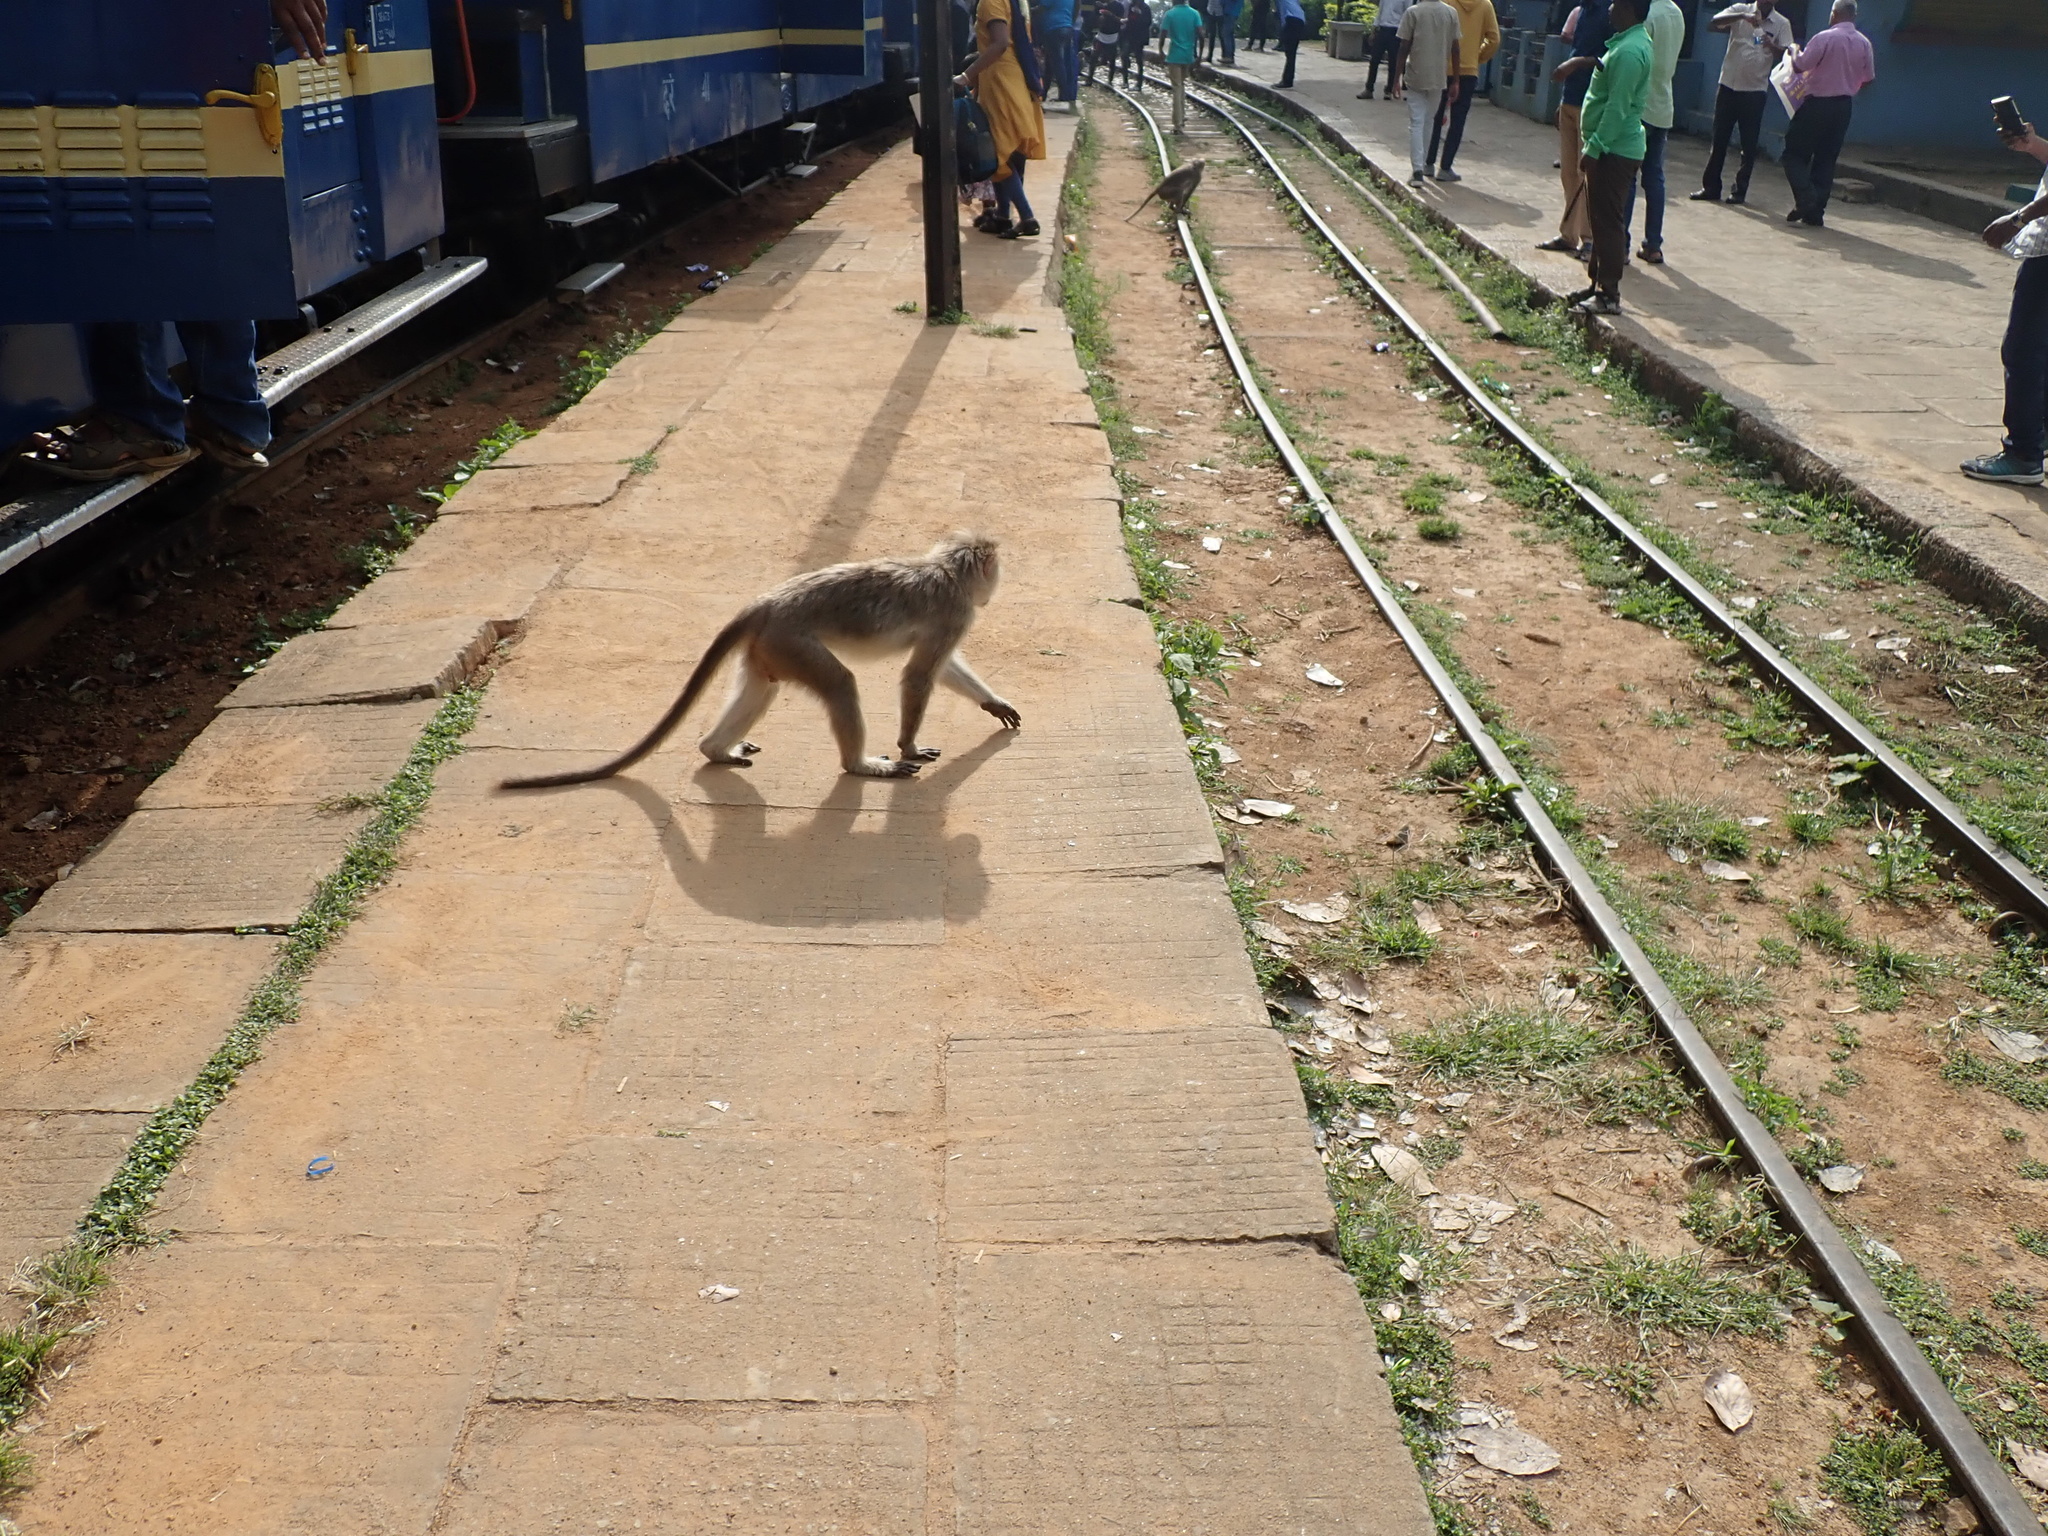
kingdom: Animalia
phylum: Chordata
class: Mammalia
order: Primates
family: Cercopithecidae
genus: Macaca
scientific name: Macaca radiata
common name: Bonnet macaque
